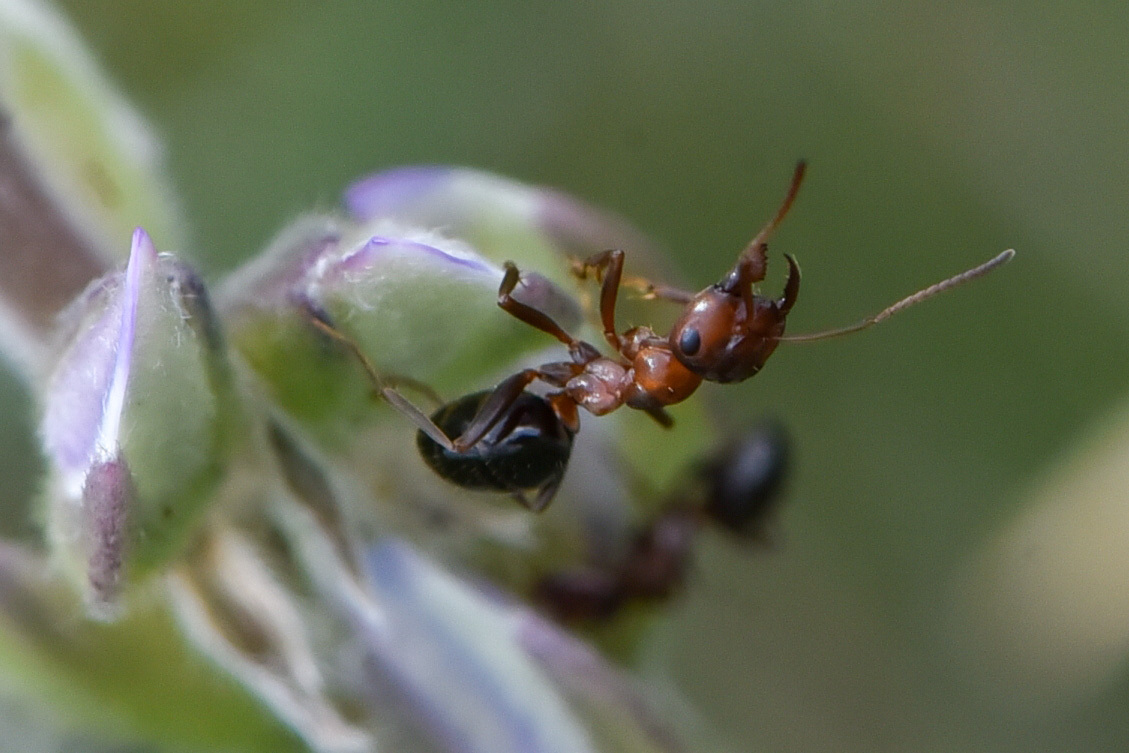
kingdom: Animalia
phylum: Arthropoda
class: Insecta
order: Hymenoptera
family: Formicidae
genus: Formica
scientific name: Formica subpolita
